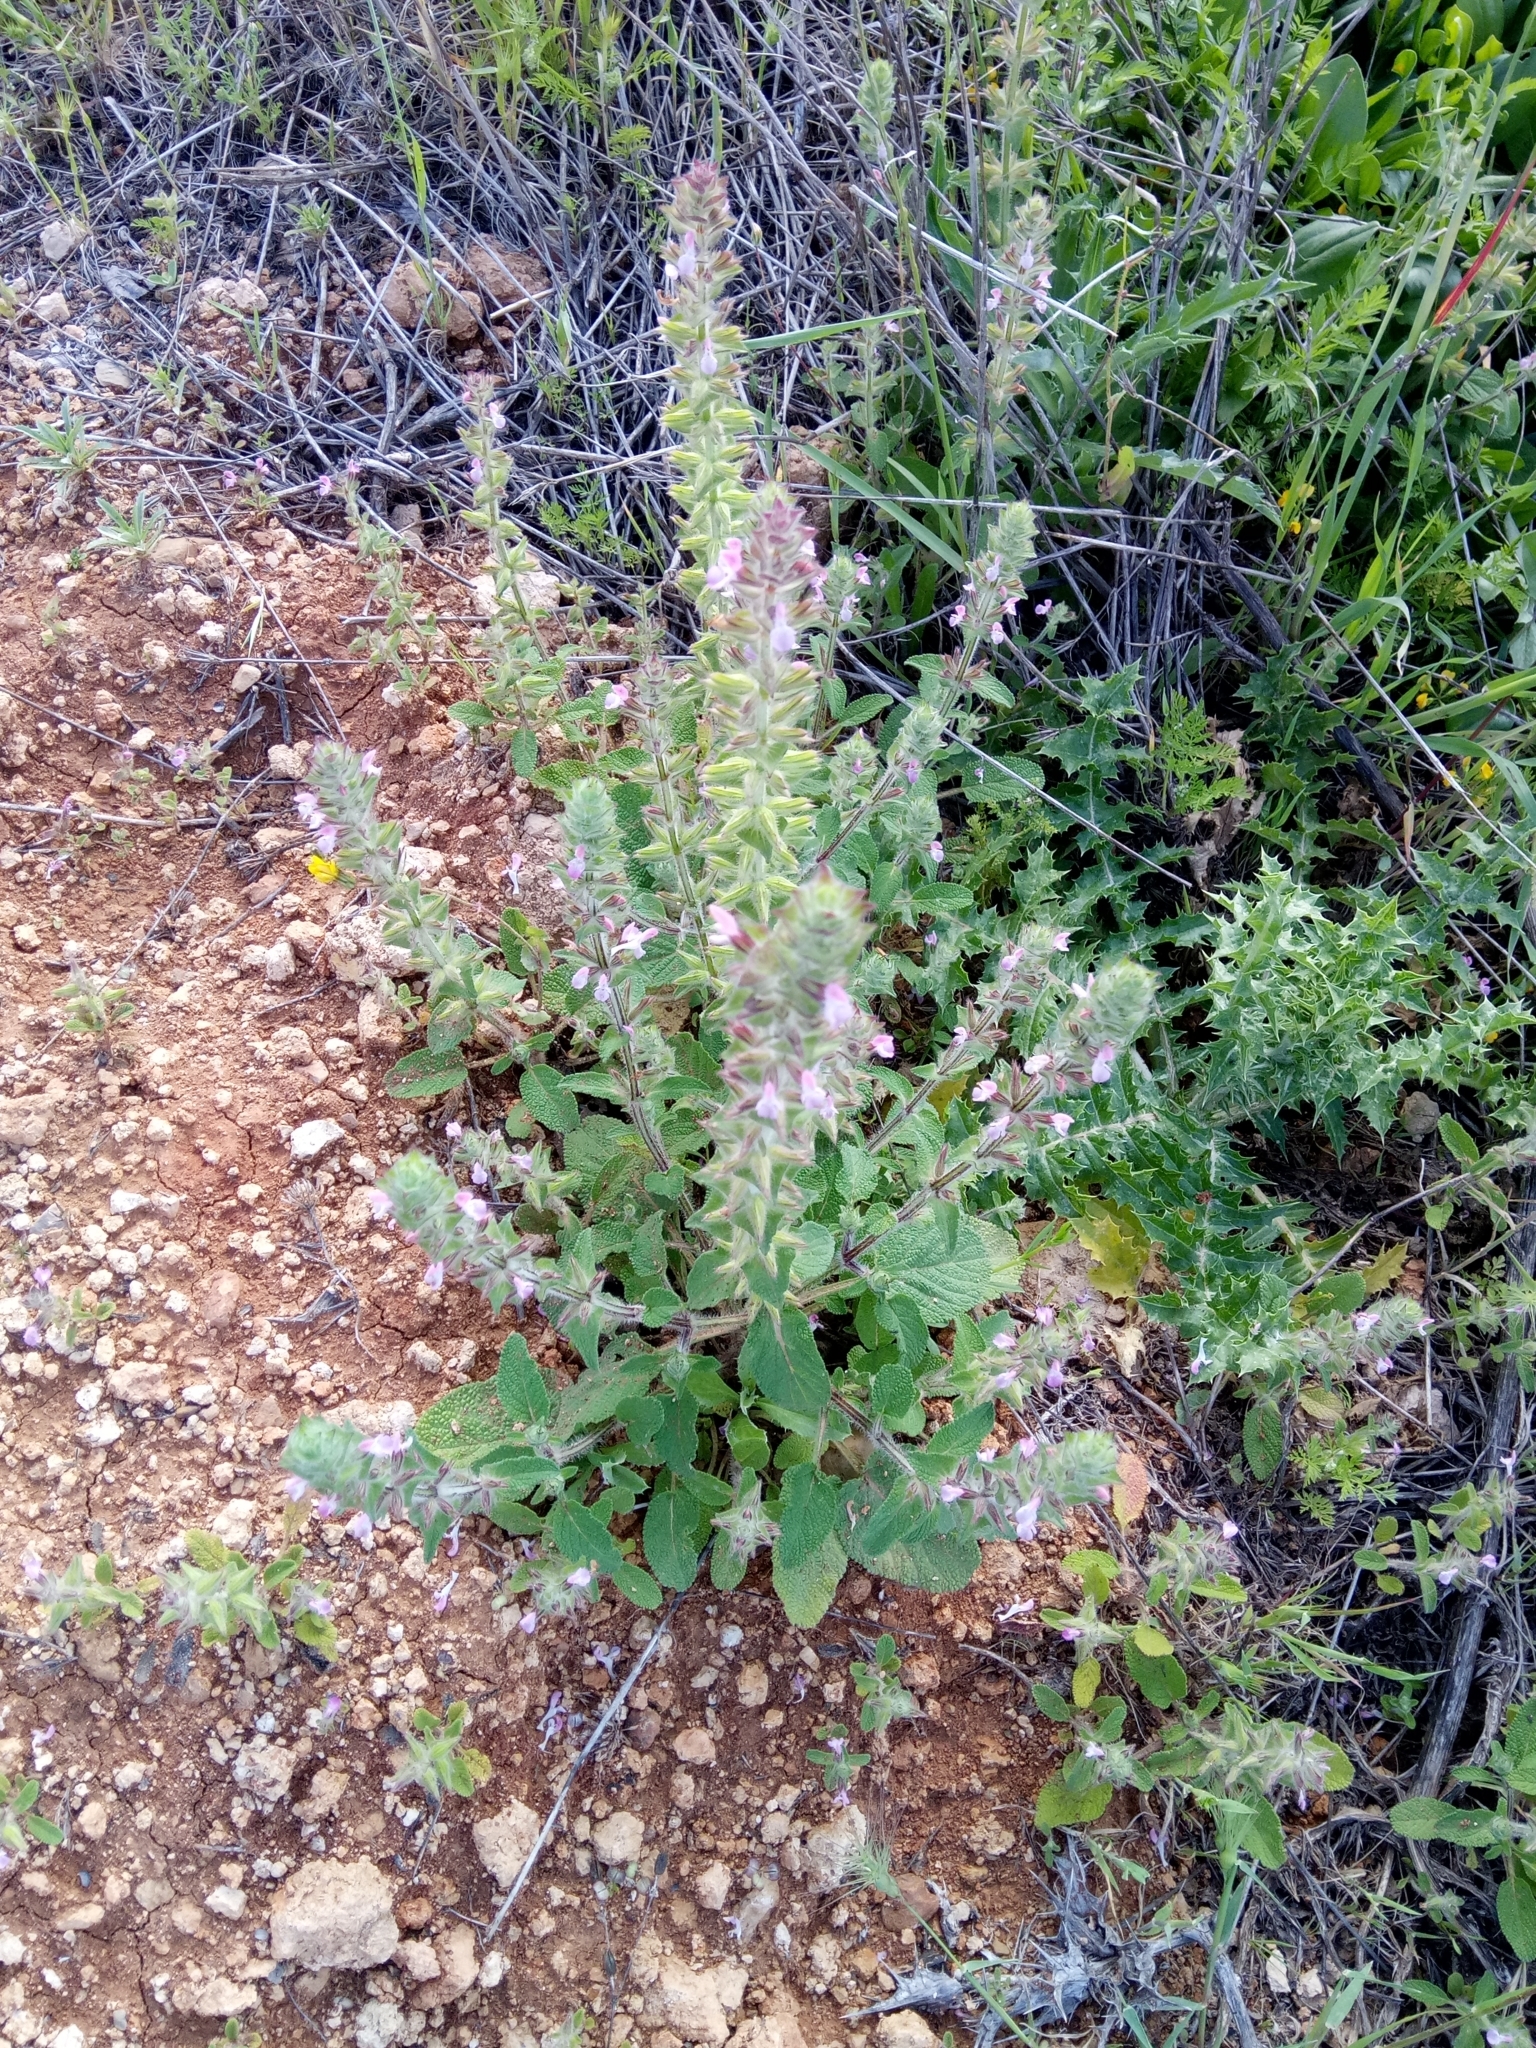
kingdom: Plantae
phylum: Tracheophyta
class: Magnoliopsida
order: Lamiales
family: Lamiaceae
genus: Salvia
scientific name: Salvia viridis
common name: Annual clary
